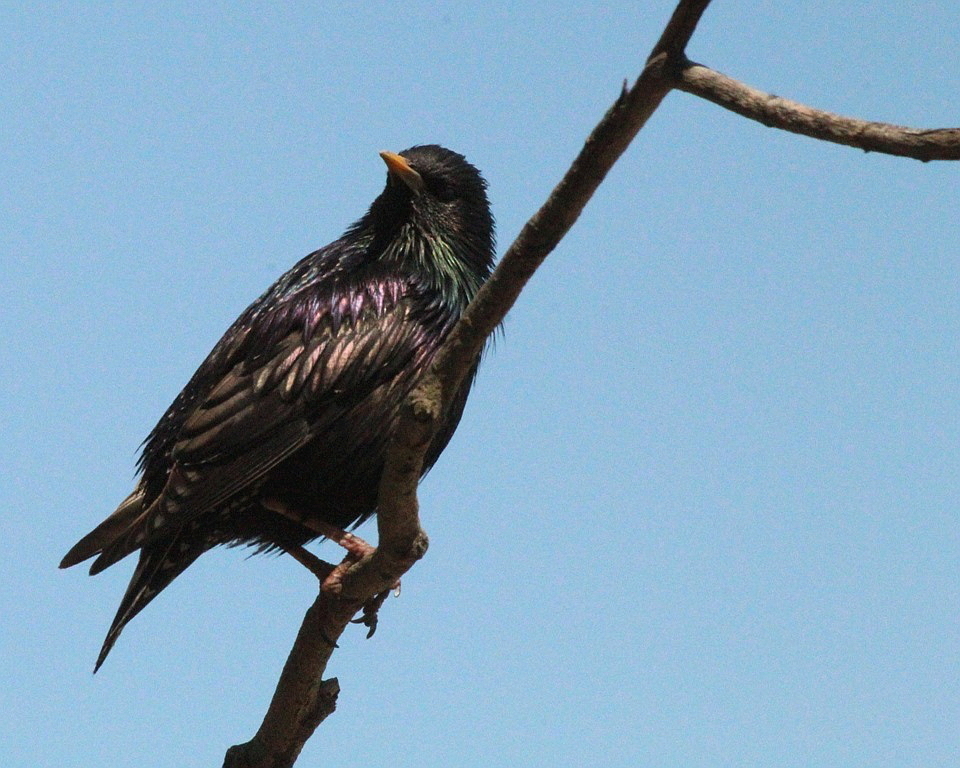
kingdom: Animalia
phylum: Chordata
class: Aves
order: Passeriformes
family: Sturnidae
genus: Sturnus
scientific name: Sturnus vulgaris
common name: Common starling
